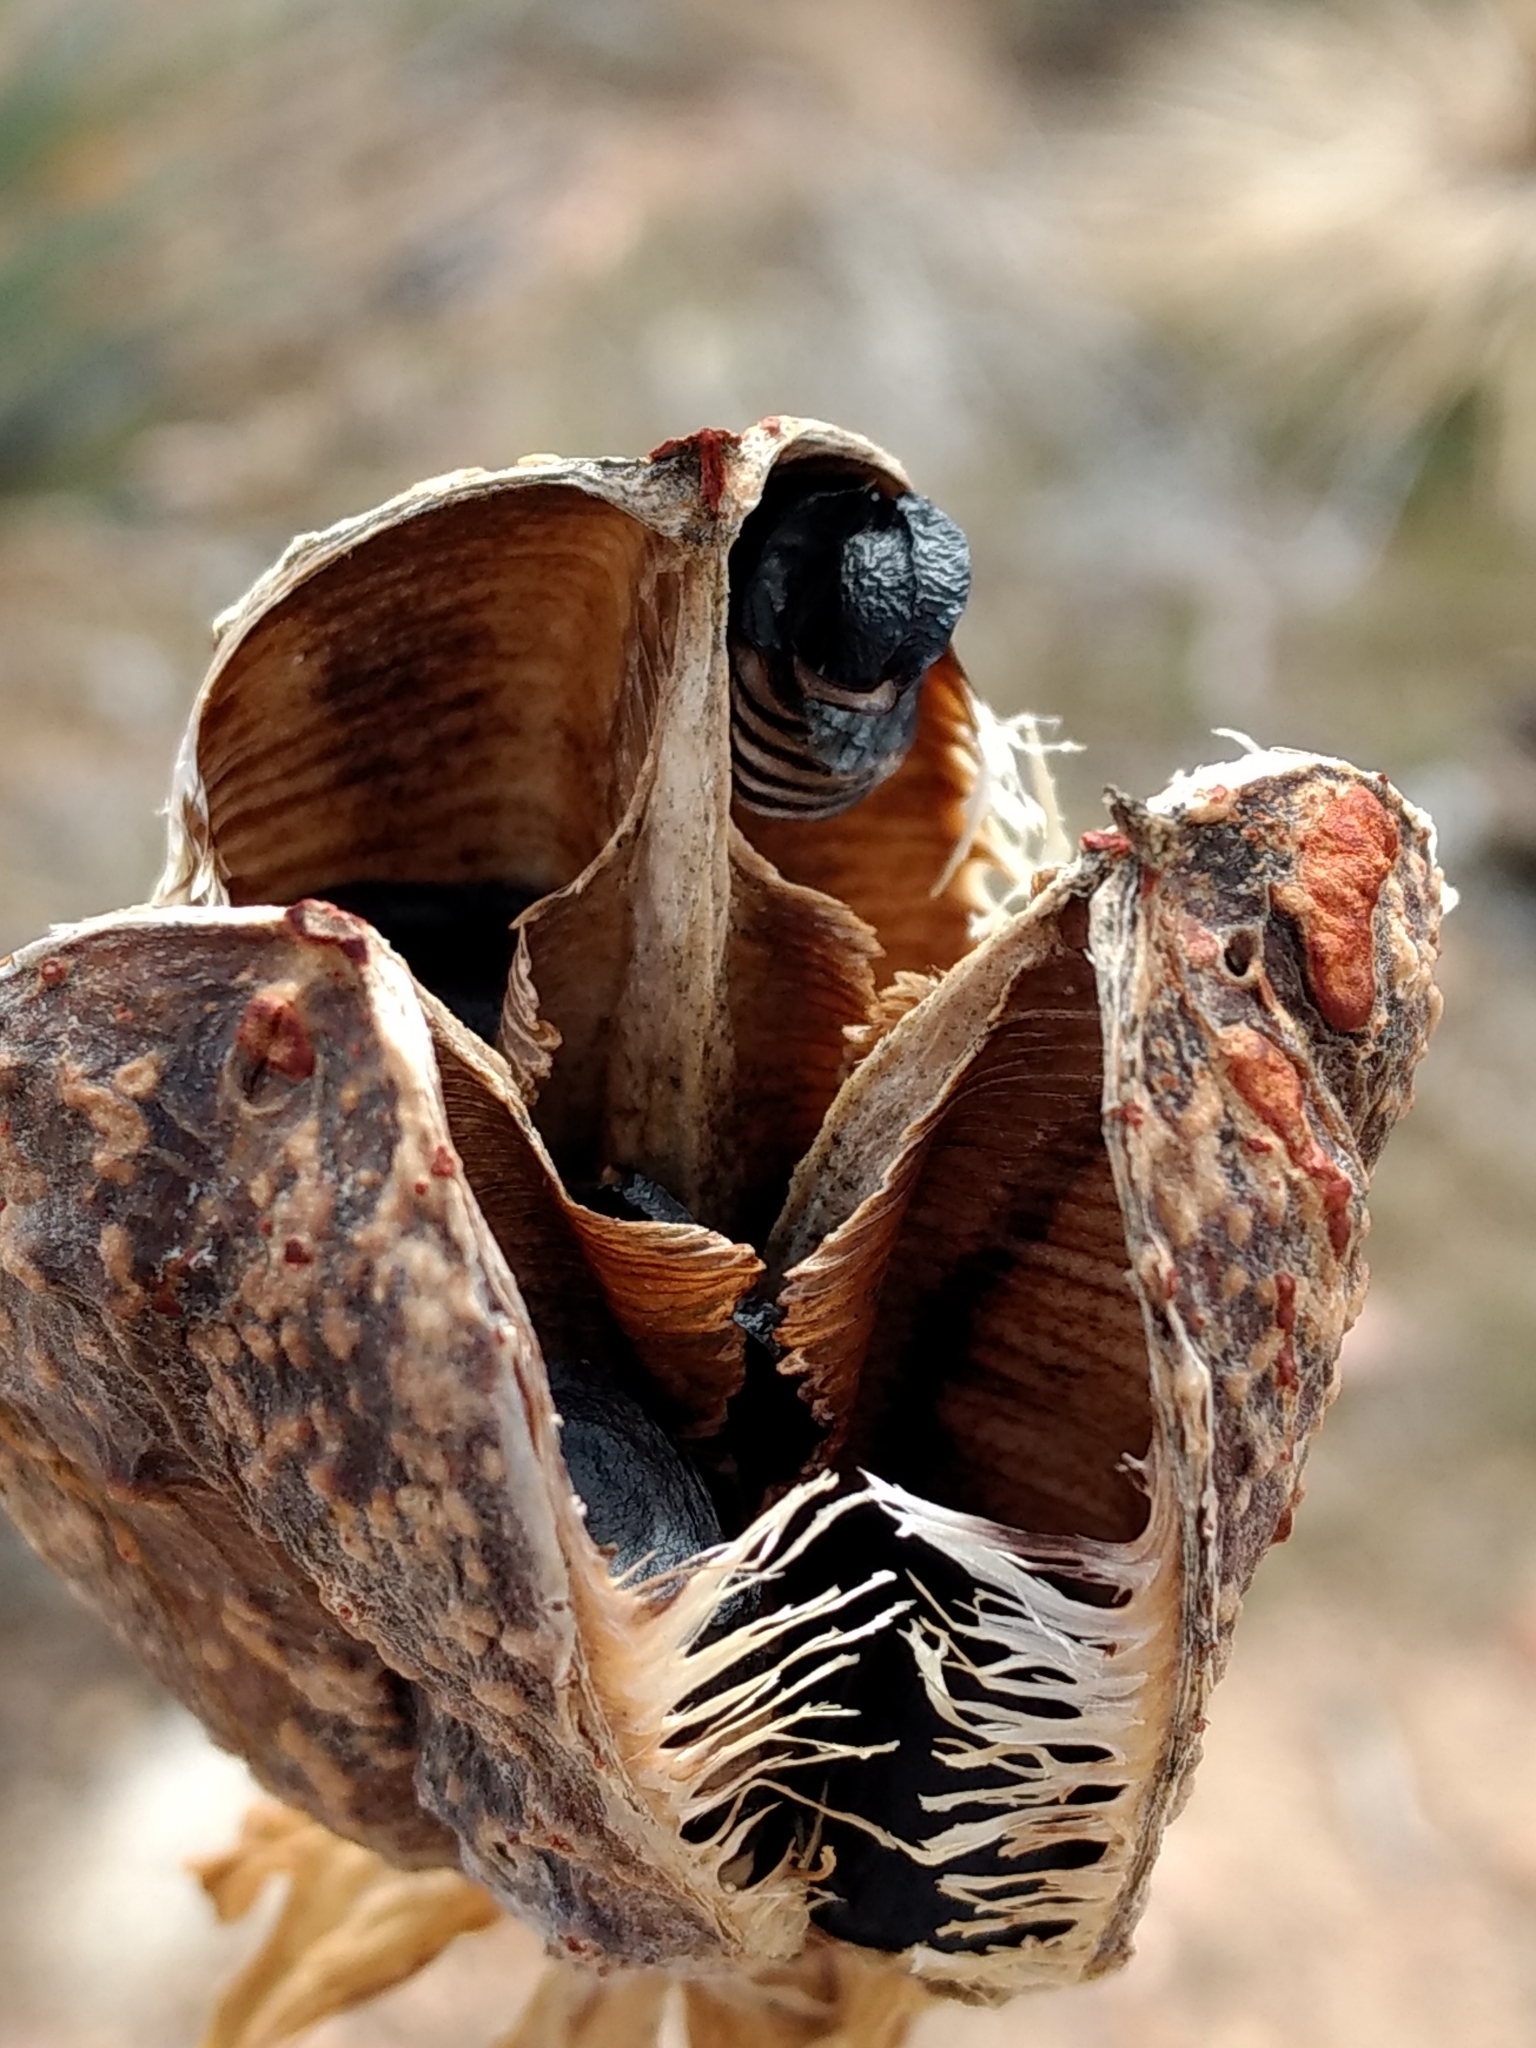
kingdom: Plantae
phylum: Tracheophyta
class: Liliopsida
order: Asparagales
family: Asparagaceae
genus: Hesperoyucca
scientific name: Hesperoyucca whipplei
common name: Our lord's-candle
